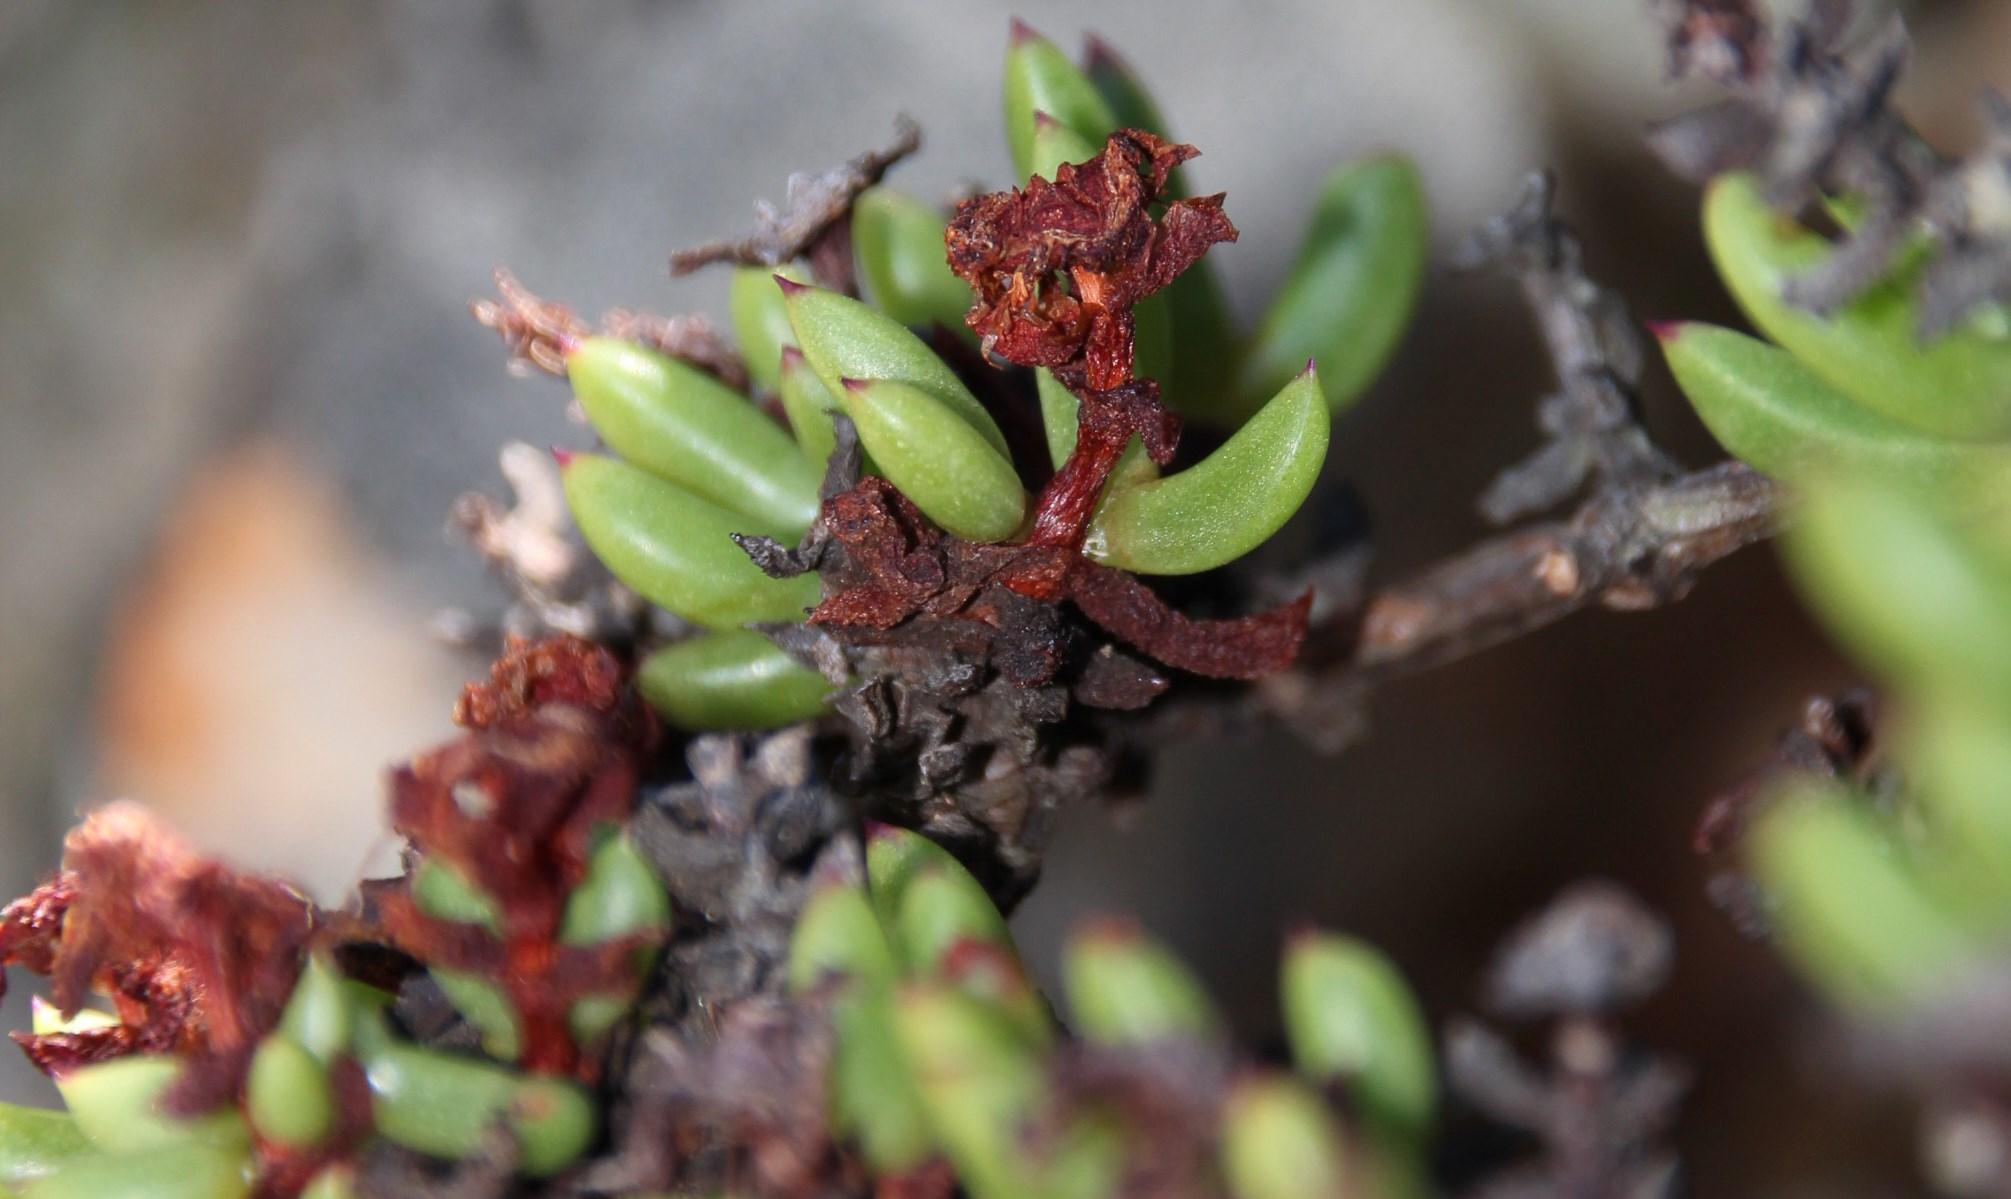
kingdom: Plantae
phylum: Tracheophyta
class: Magnoliopsida
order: Caryophyllales
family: Aizoaceae
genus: Esterhuysenia
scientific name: Esterhuysenia drepanophylla
